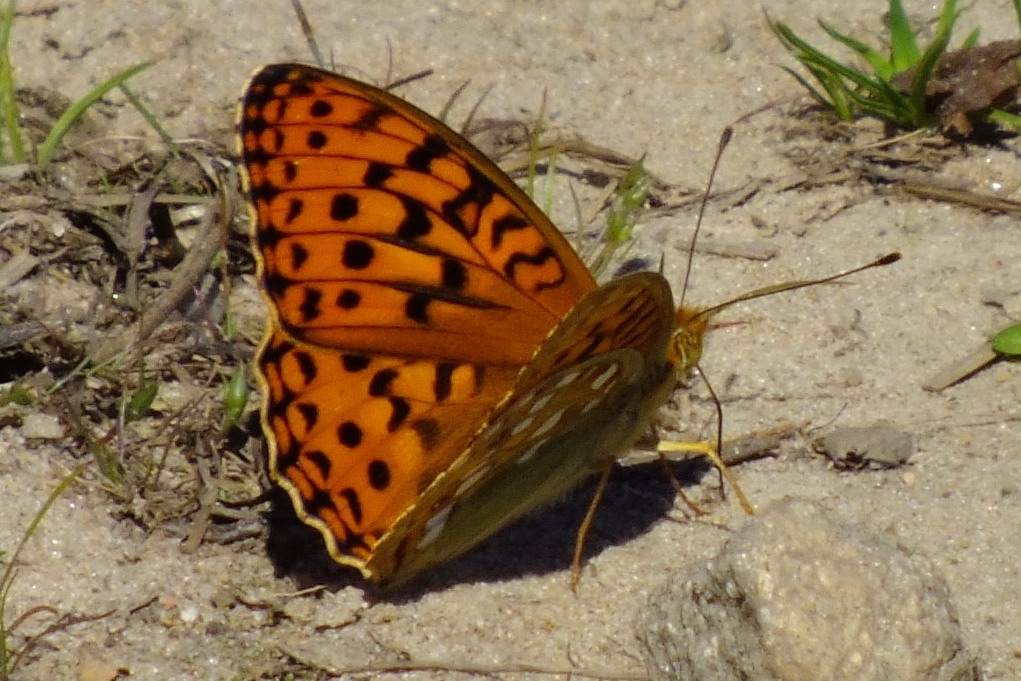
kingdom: Animalia
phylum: Arthropoda
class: Insecta
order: Lepidoptera
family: Nymphalidae
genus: Fabriciana
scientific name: Fabriciana adippe
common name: High brown fritillary
